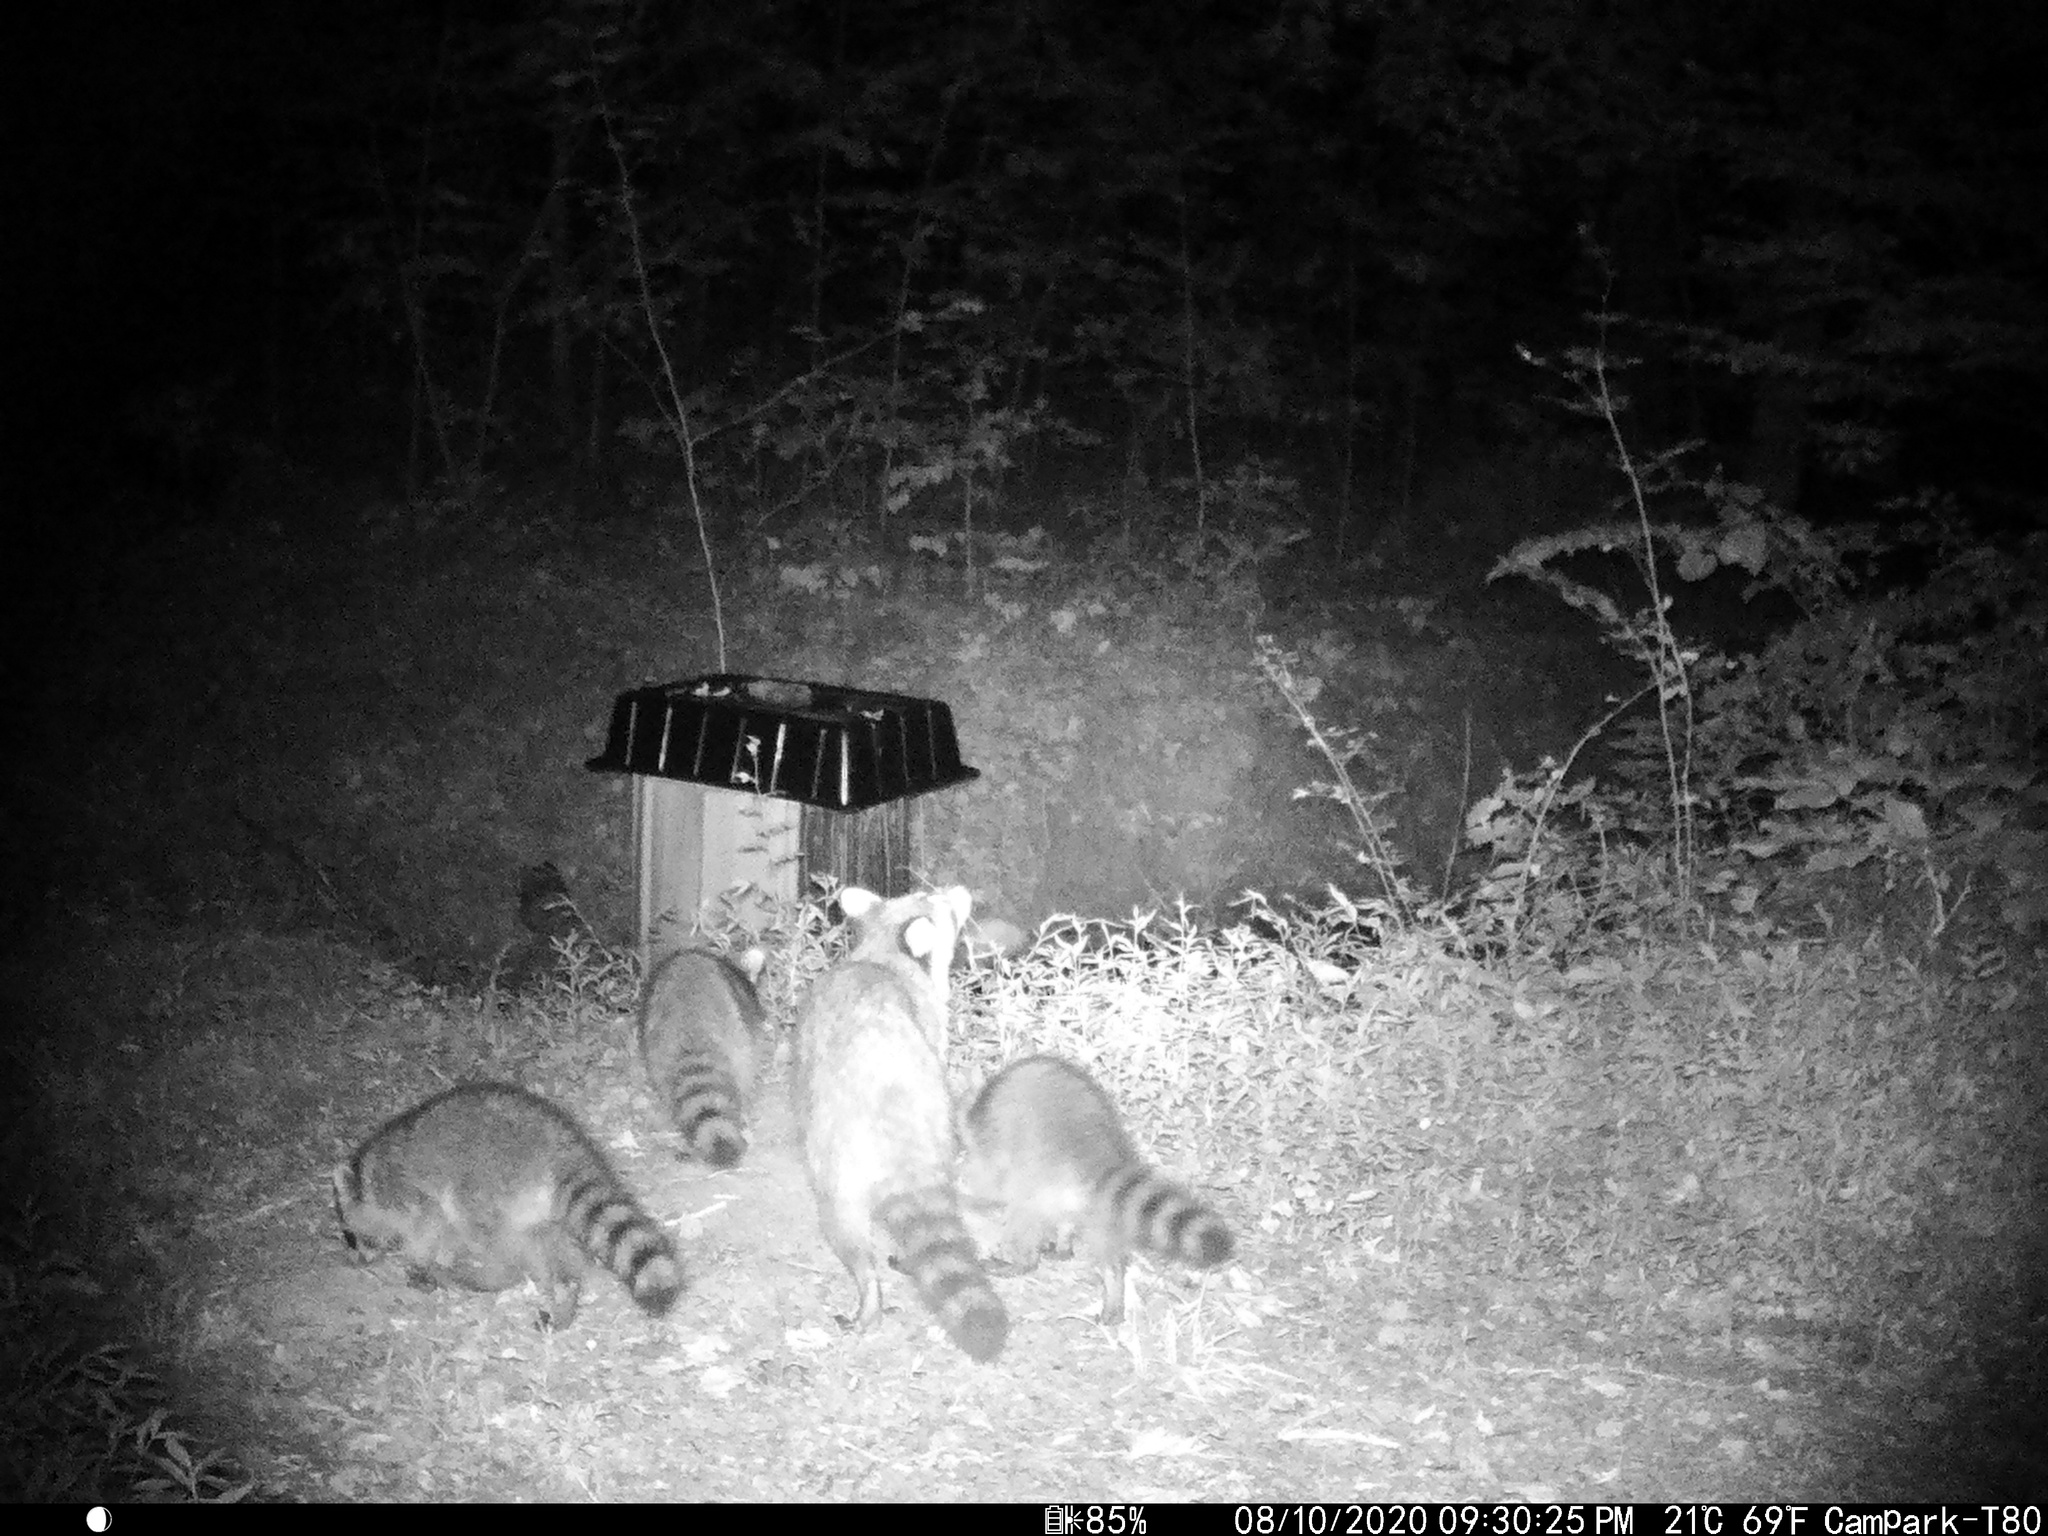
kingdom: Animalia
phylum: Chordata
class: Mammalia
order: Carnivora
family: Procyonidae
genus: Procyon
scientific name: Procyon lotor
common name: Raccoon
